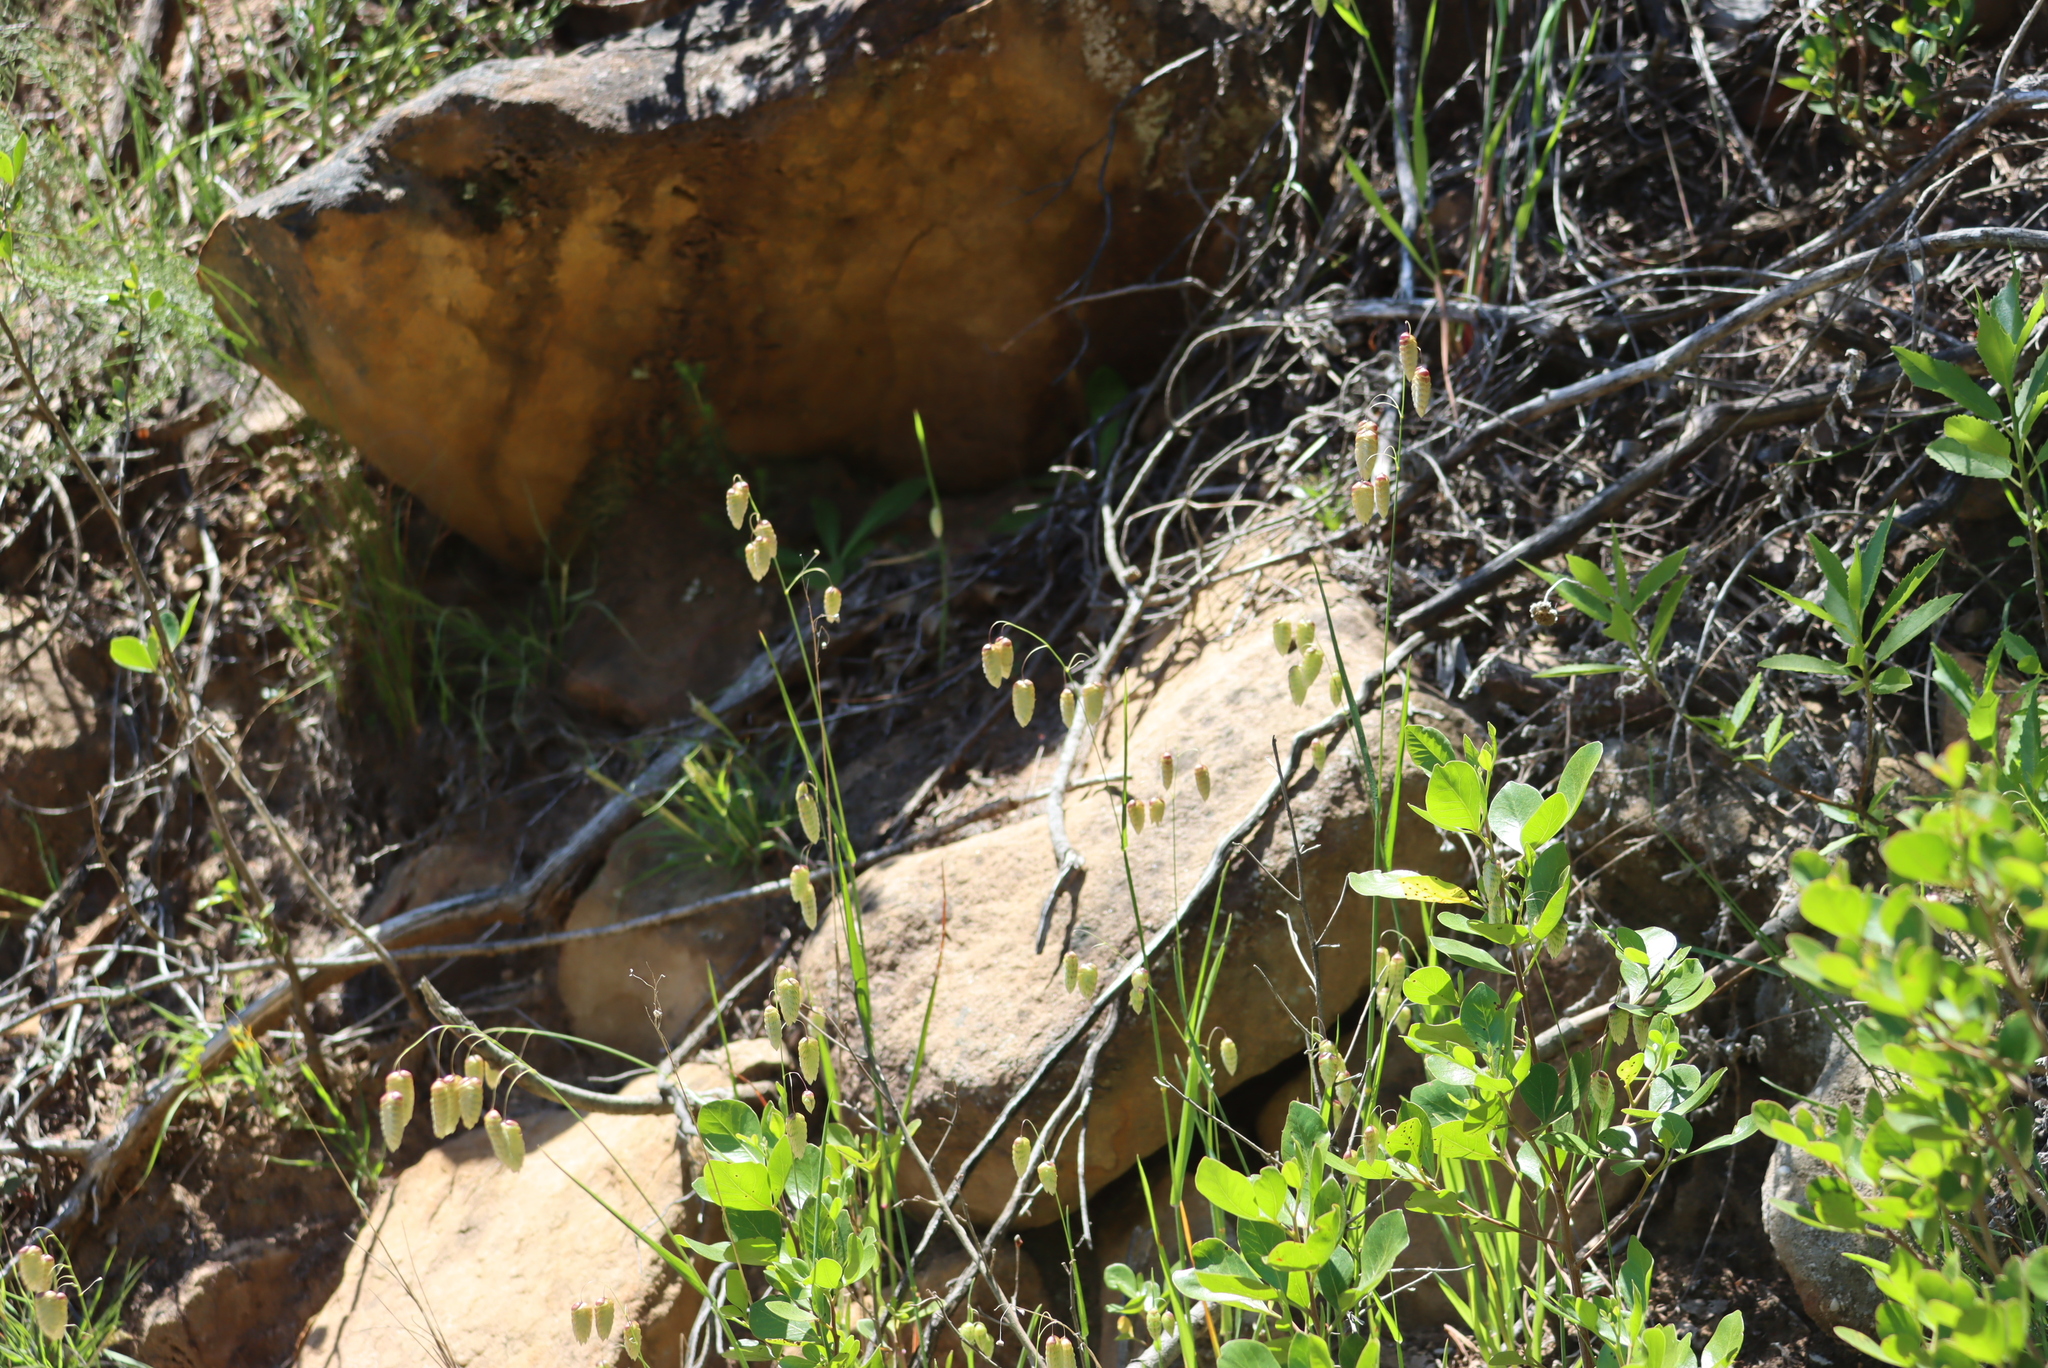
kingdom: Plantae
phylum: Tracheophyta
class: Liliopsida
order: Poales
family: Poaceae
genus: Briza
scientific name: Briza maxima
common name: Big quakinggrass
